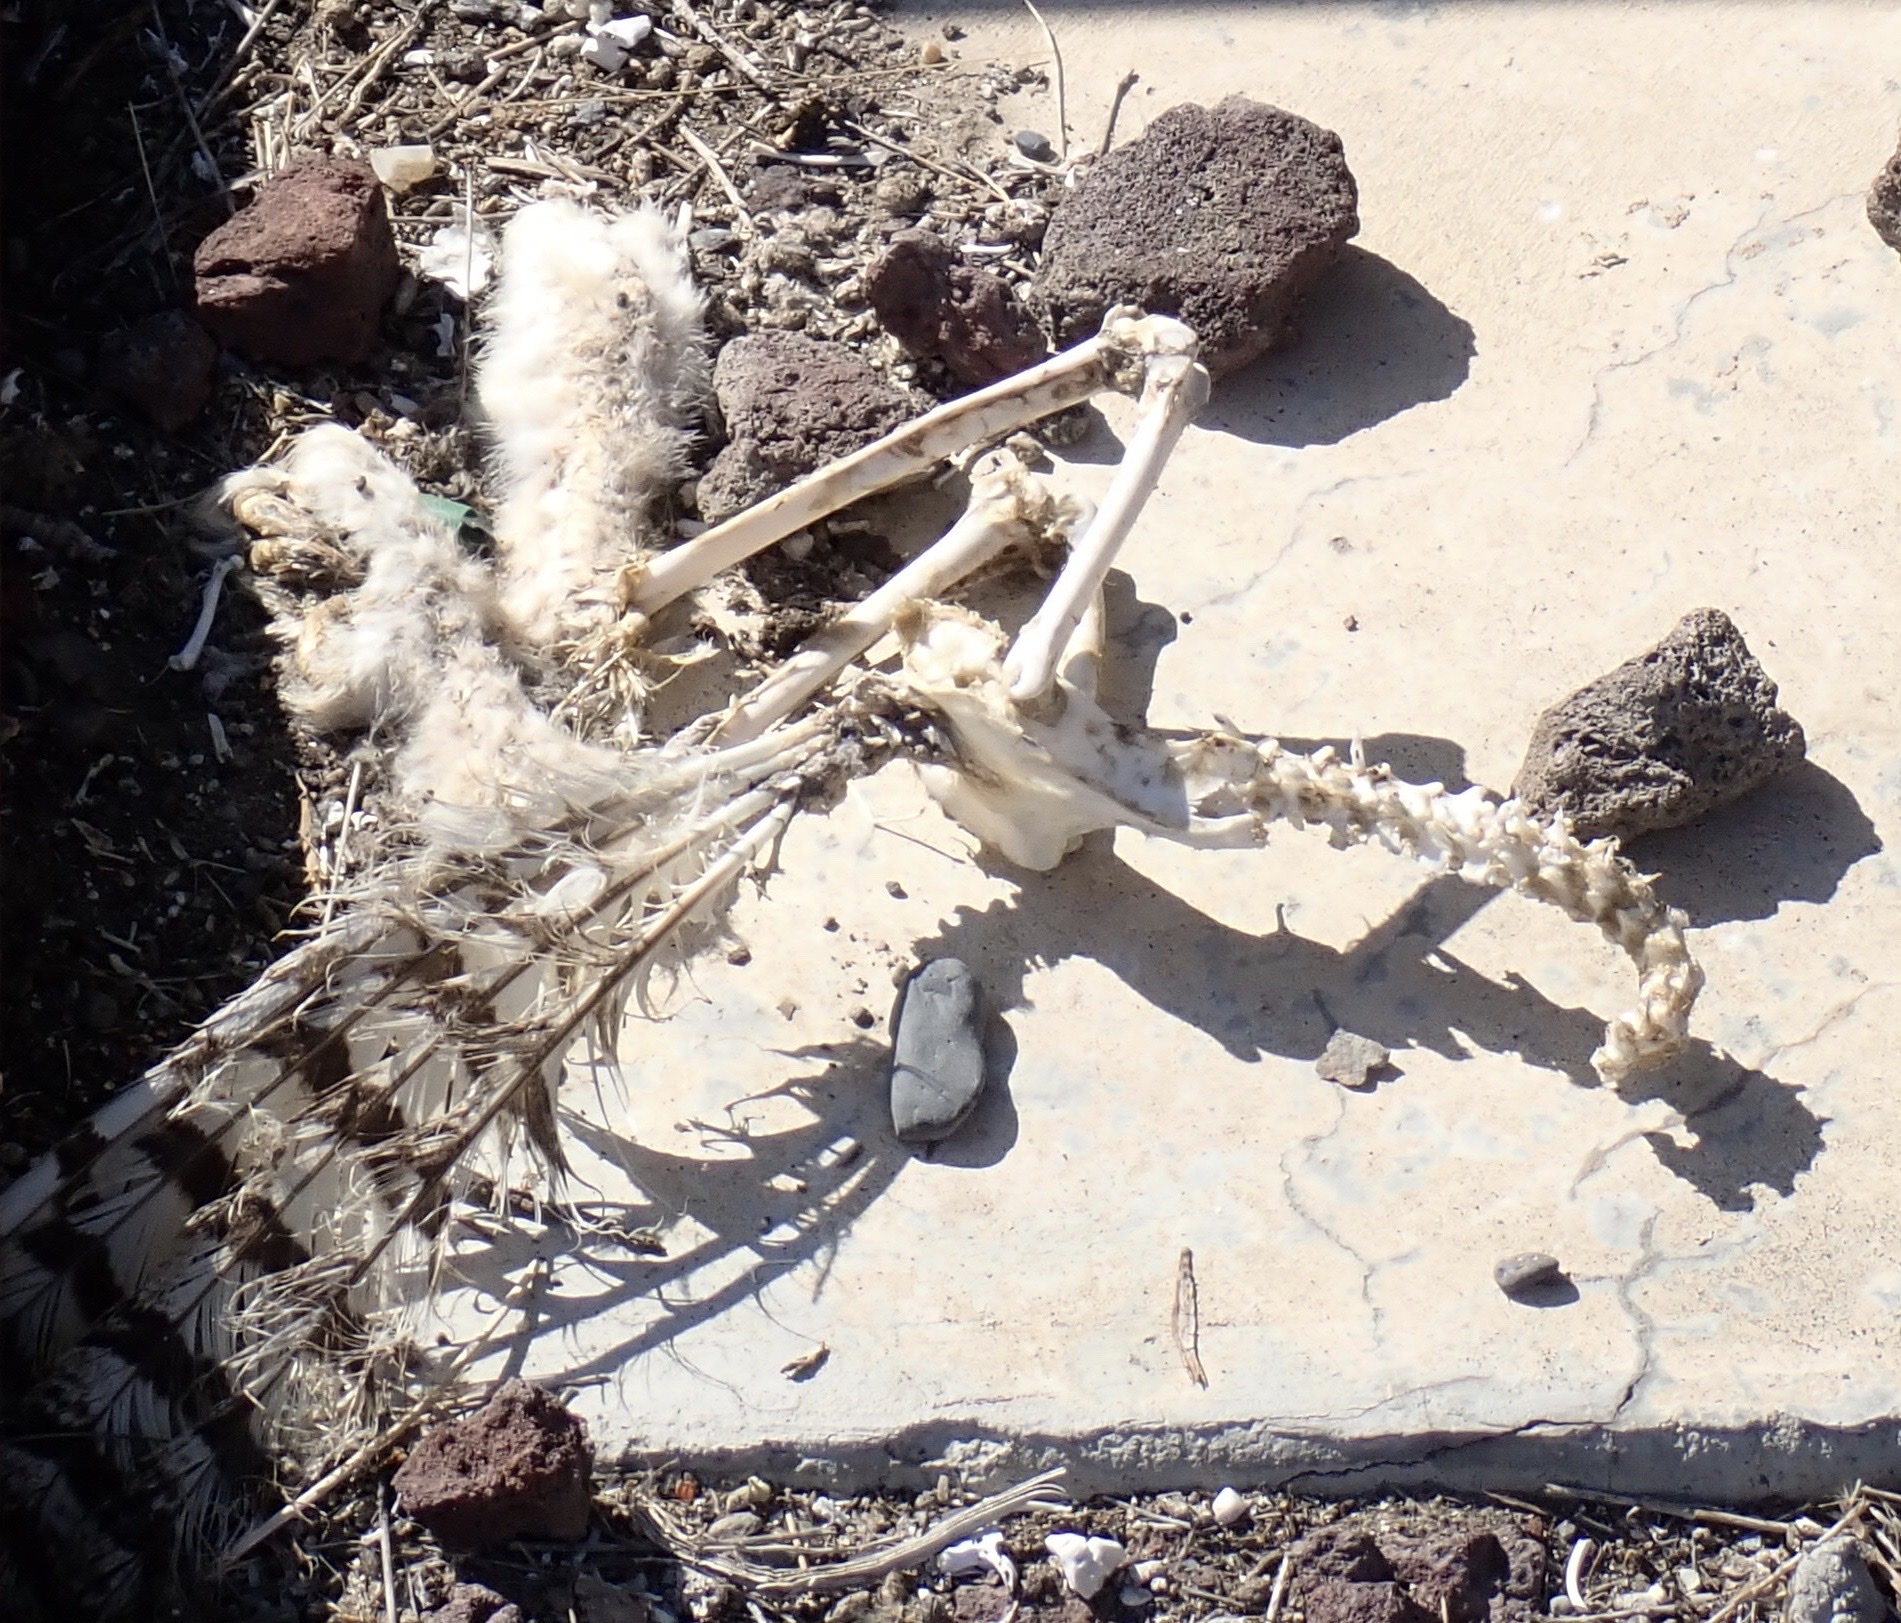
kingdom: Animalia
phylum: Chordata
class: Aves
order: Strigiformes
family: Strigidae
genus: Bubo
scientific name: Bubo virginianus
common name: Great horned owl
